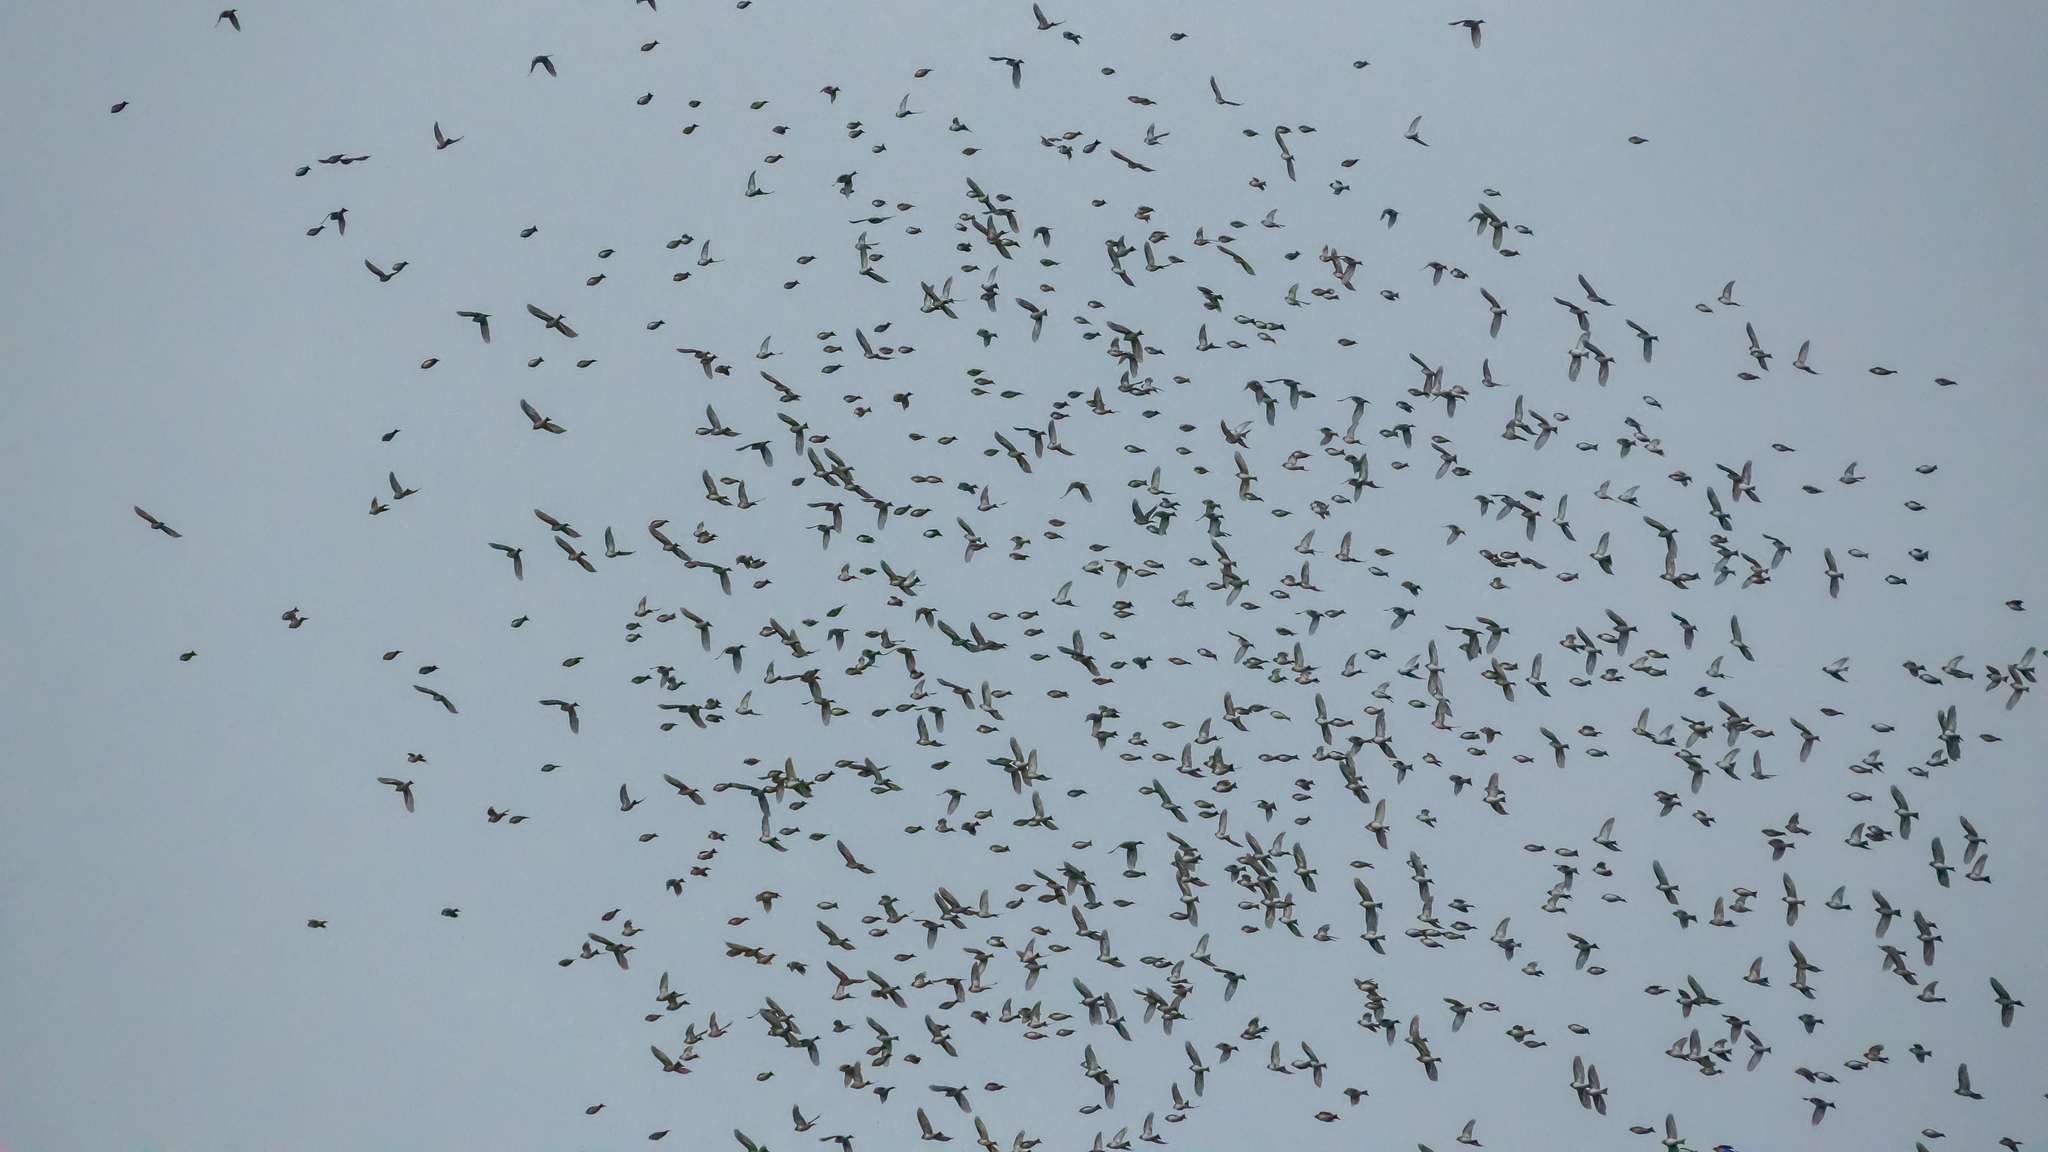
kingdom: Animalia
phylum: Chordata
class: Aves
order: Passeriformes
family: Fringillidae
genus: Fringilla
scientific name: Fringilla montifringilla
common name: Brambling
